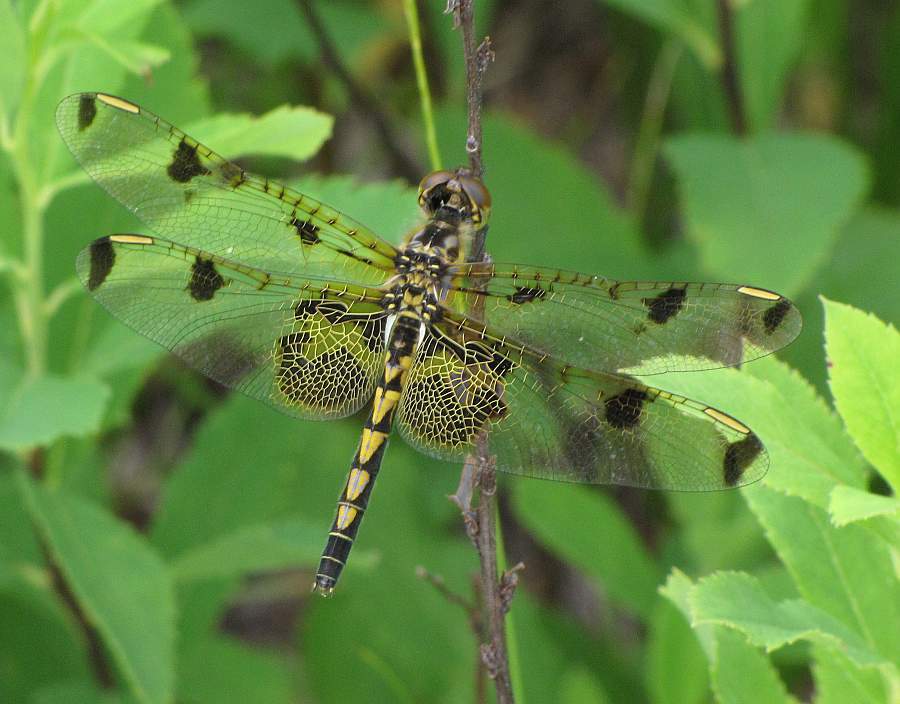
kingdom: Animalia
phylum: Arthropoda
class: Insecta
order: Odonata
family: Libellulidae
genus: Celithemis
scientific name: Celithemis elisa
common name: Calico pennant
